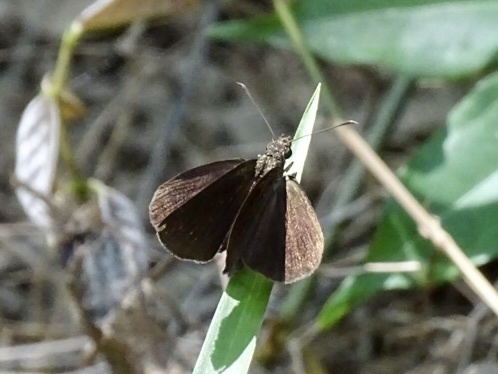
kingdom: Animalia
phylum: Arthropoda
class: Insecta
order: Lepidoptera
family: Hesperiidae
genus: Astictopterus
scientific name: Astictopterus jama
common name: Forest hopper
